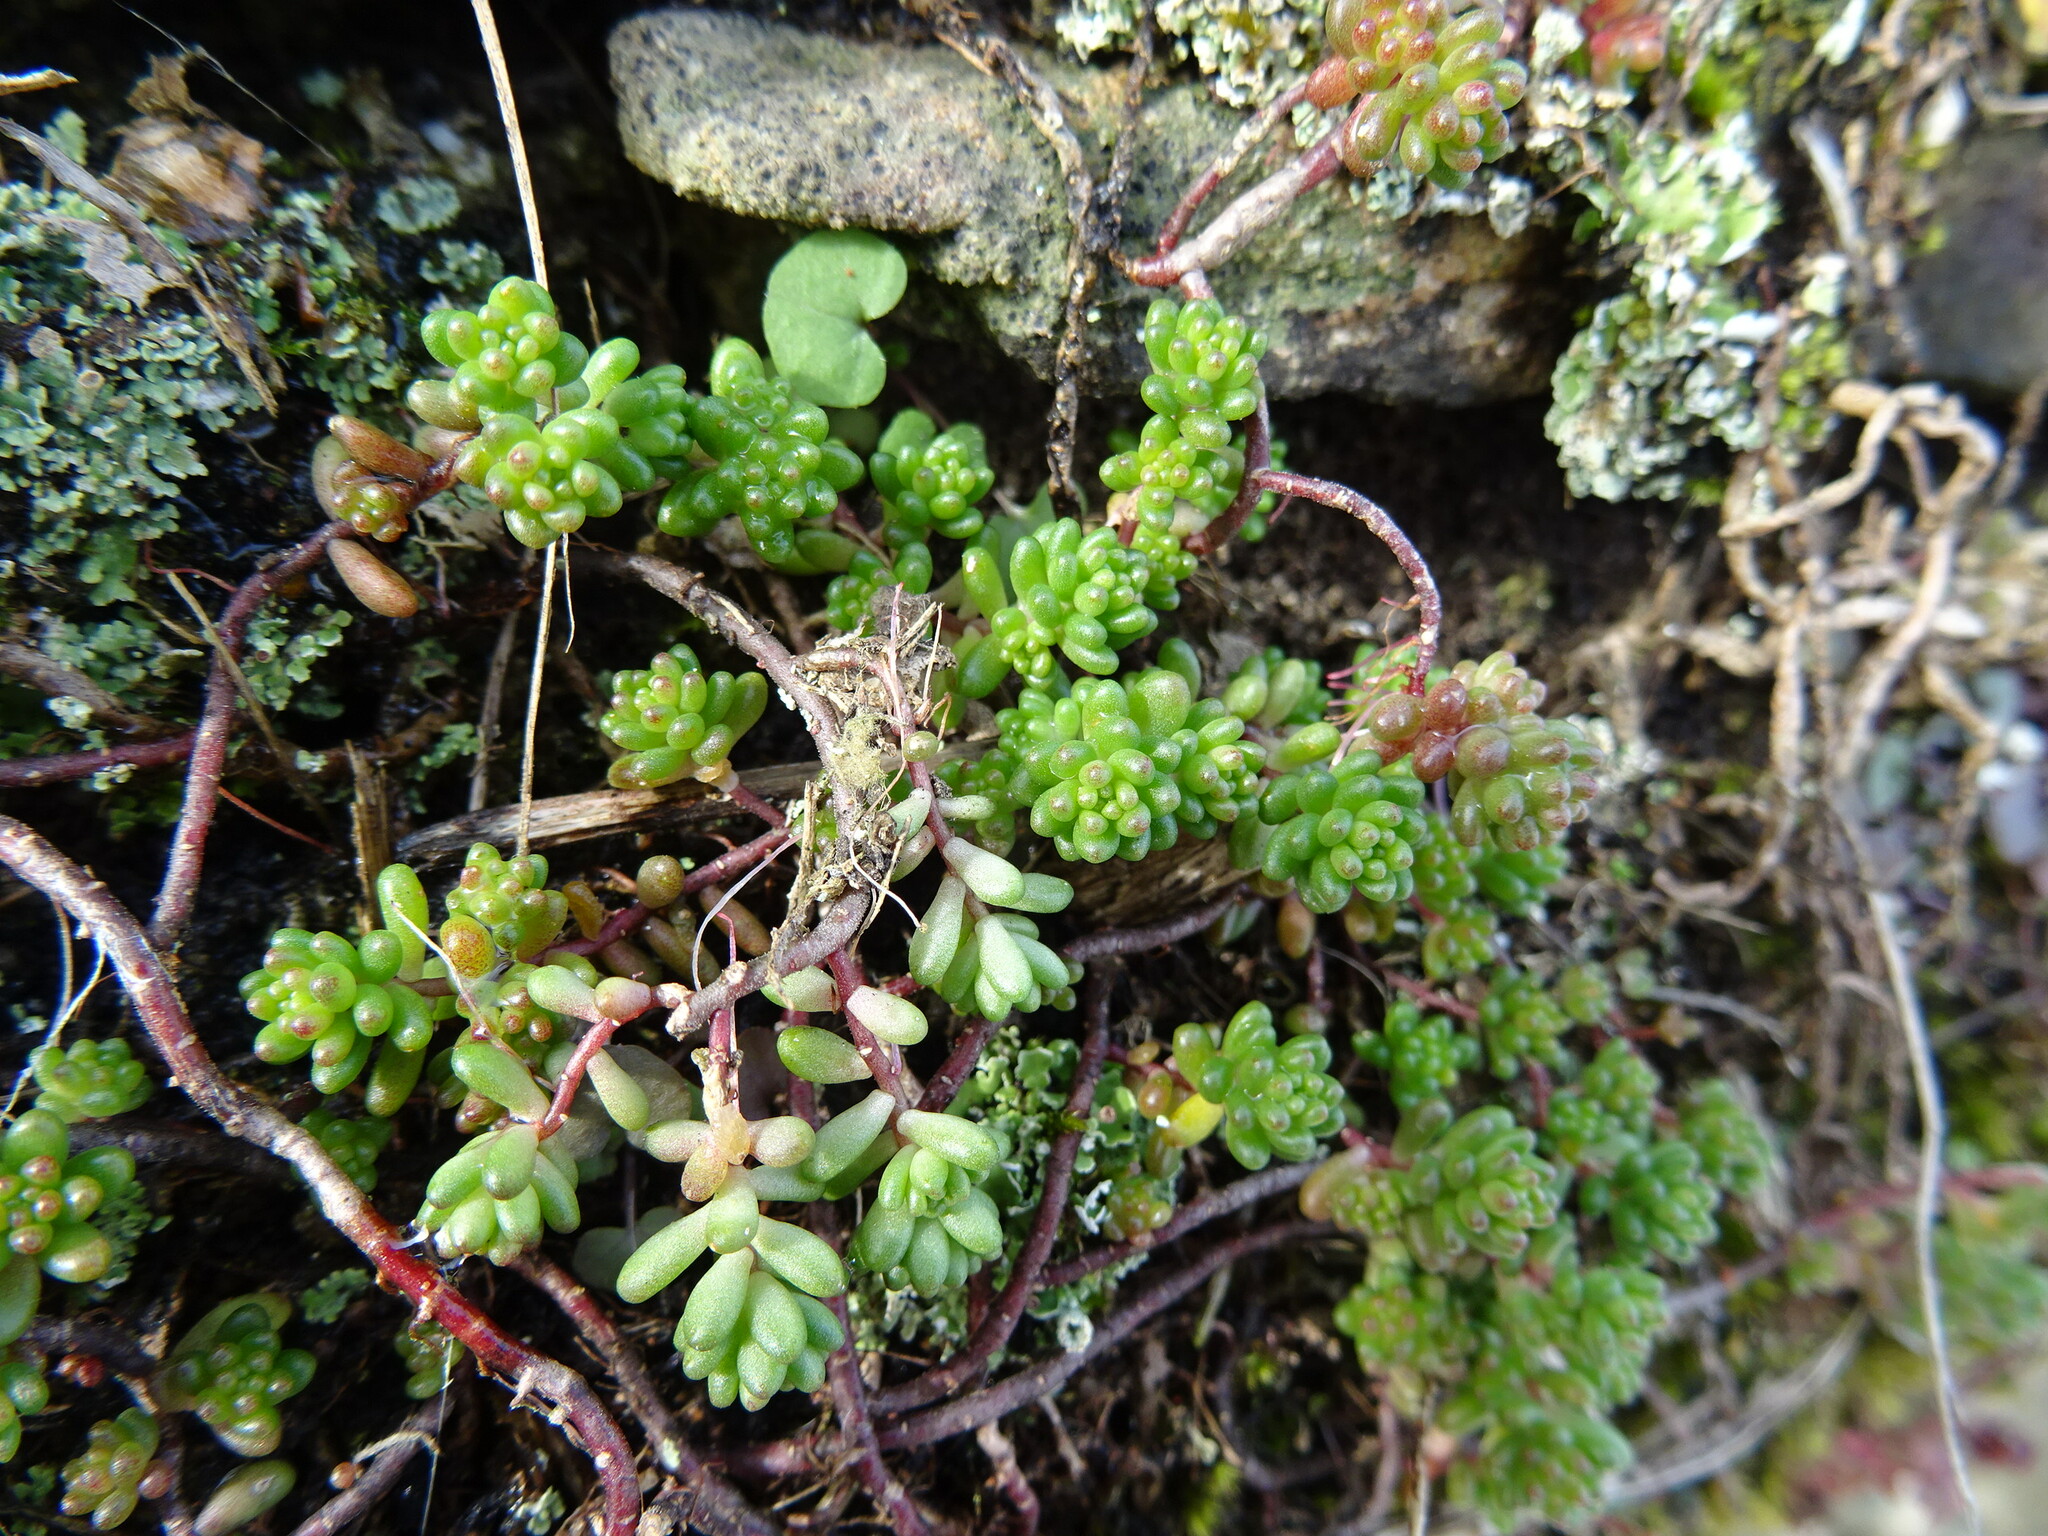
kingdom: Plantae
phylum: Tracheophyta
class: Magnoliopsida
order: Saxifragales
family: Crassulaceae
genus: Sedum
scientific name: Sedum album
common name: White stonecrop
